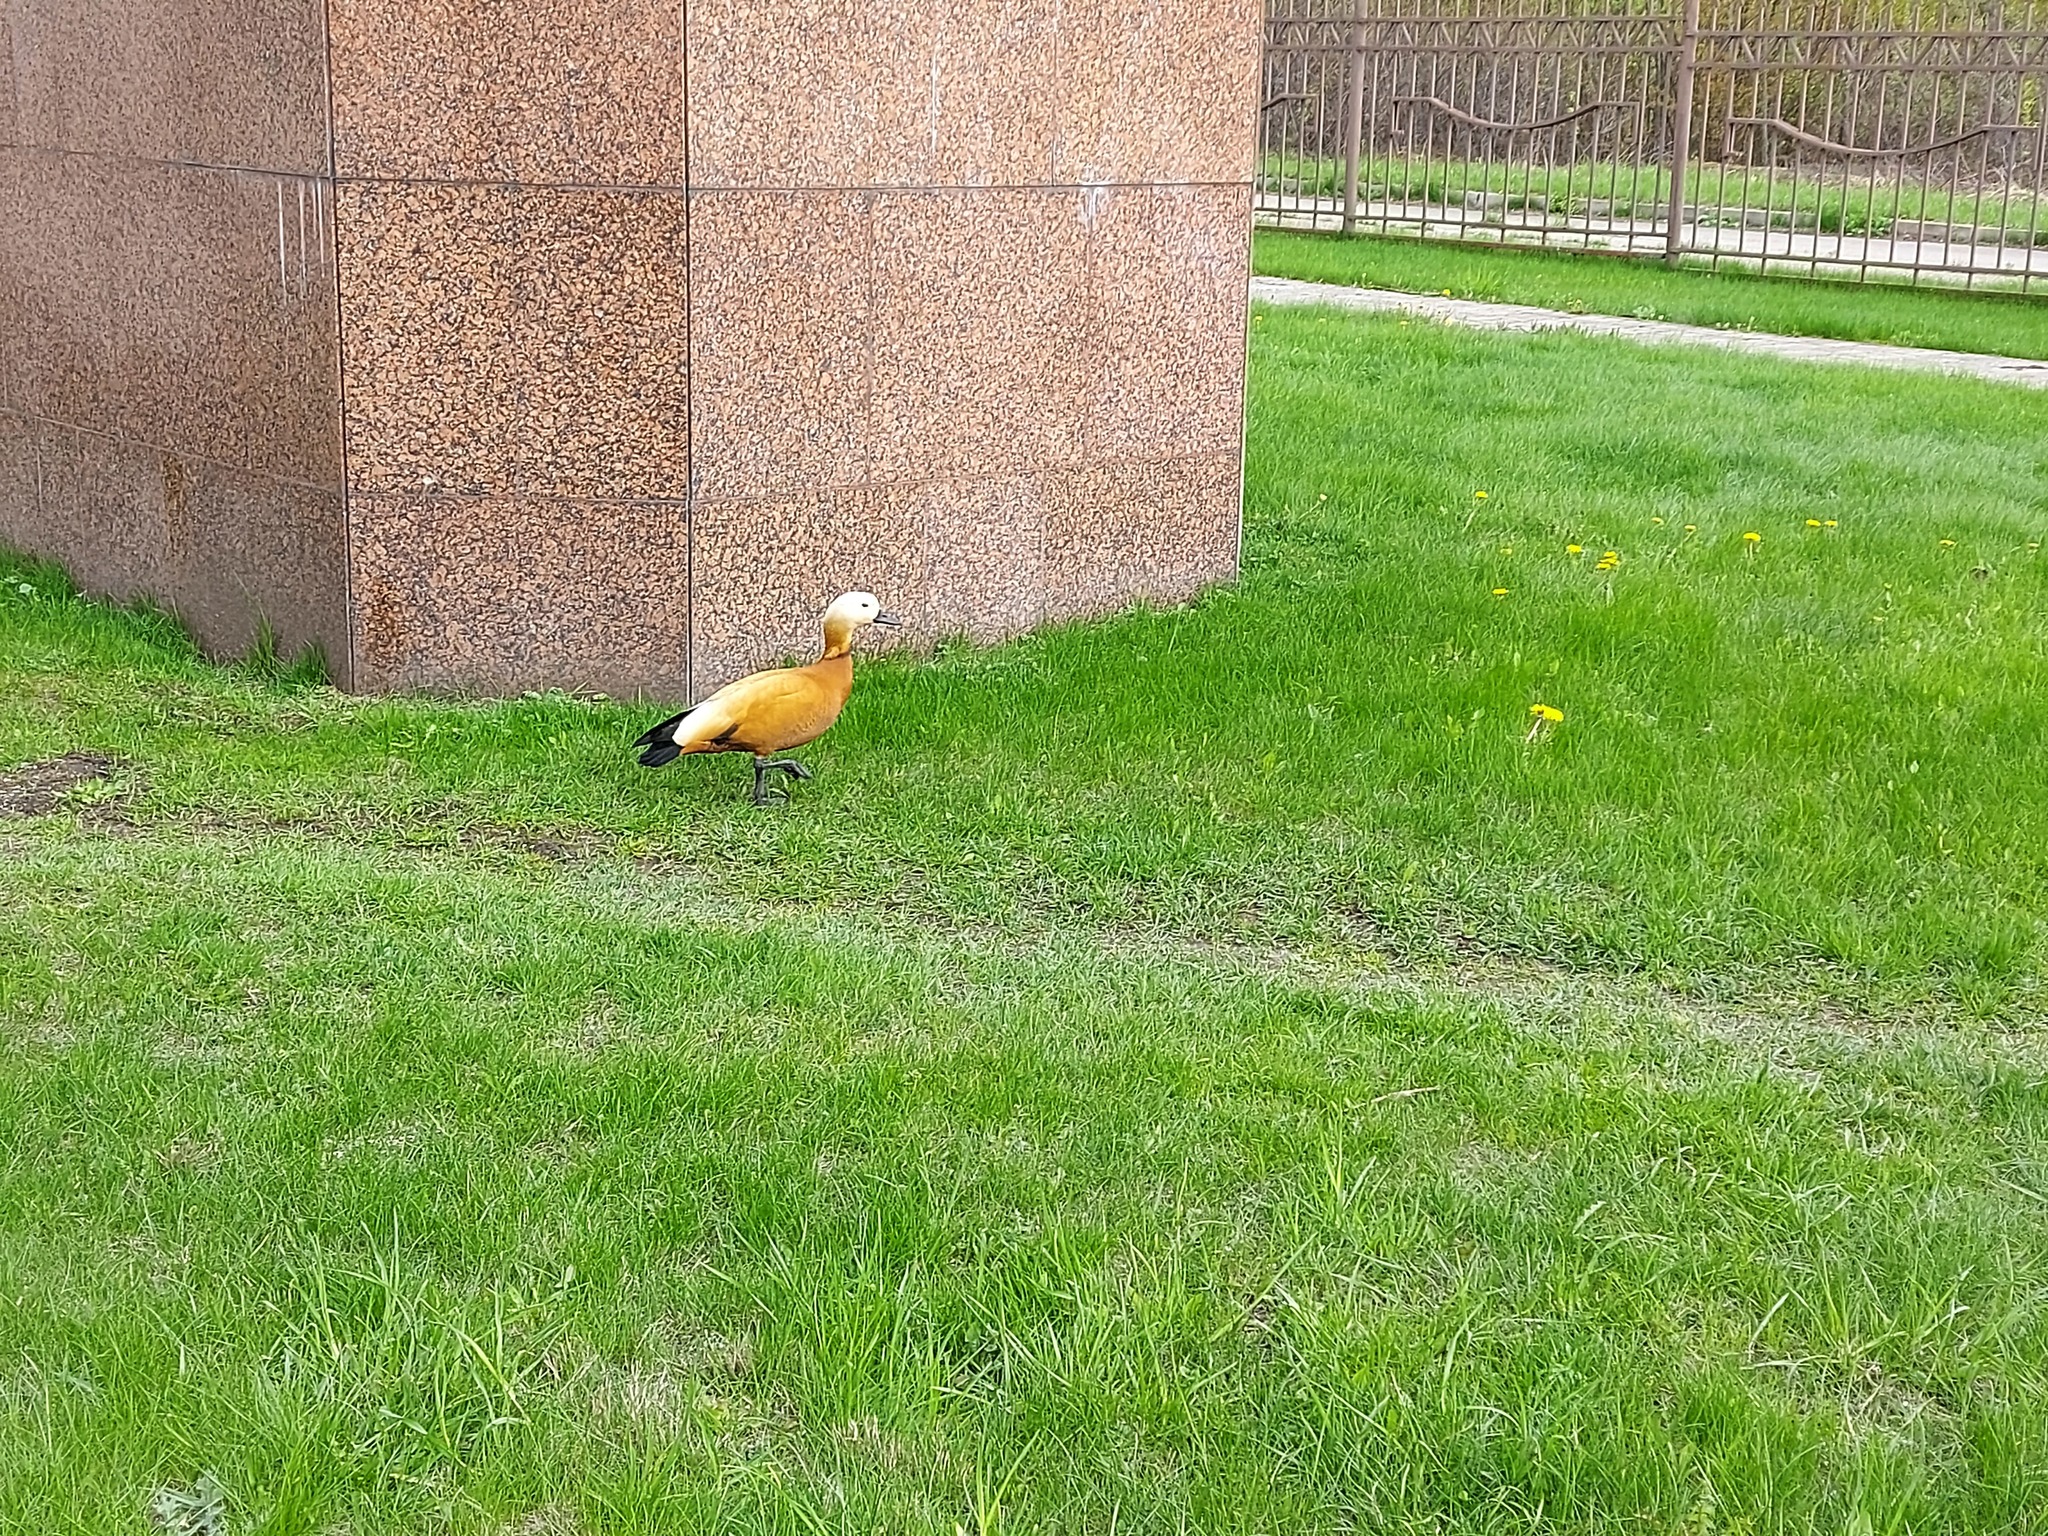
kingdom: Animalia
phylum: Chordata
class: Aves
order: Anseriformes
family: Anatidae
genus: Tadorna
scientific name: Tadorna ferruginea
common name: Ruddy shelduck
